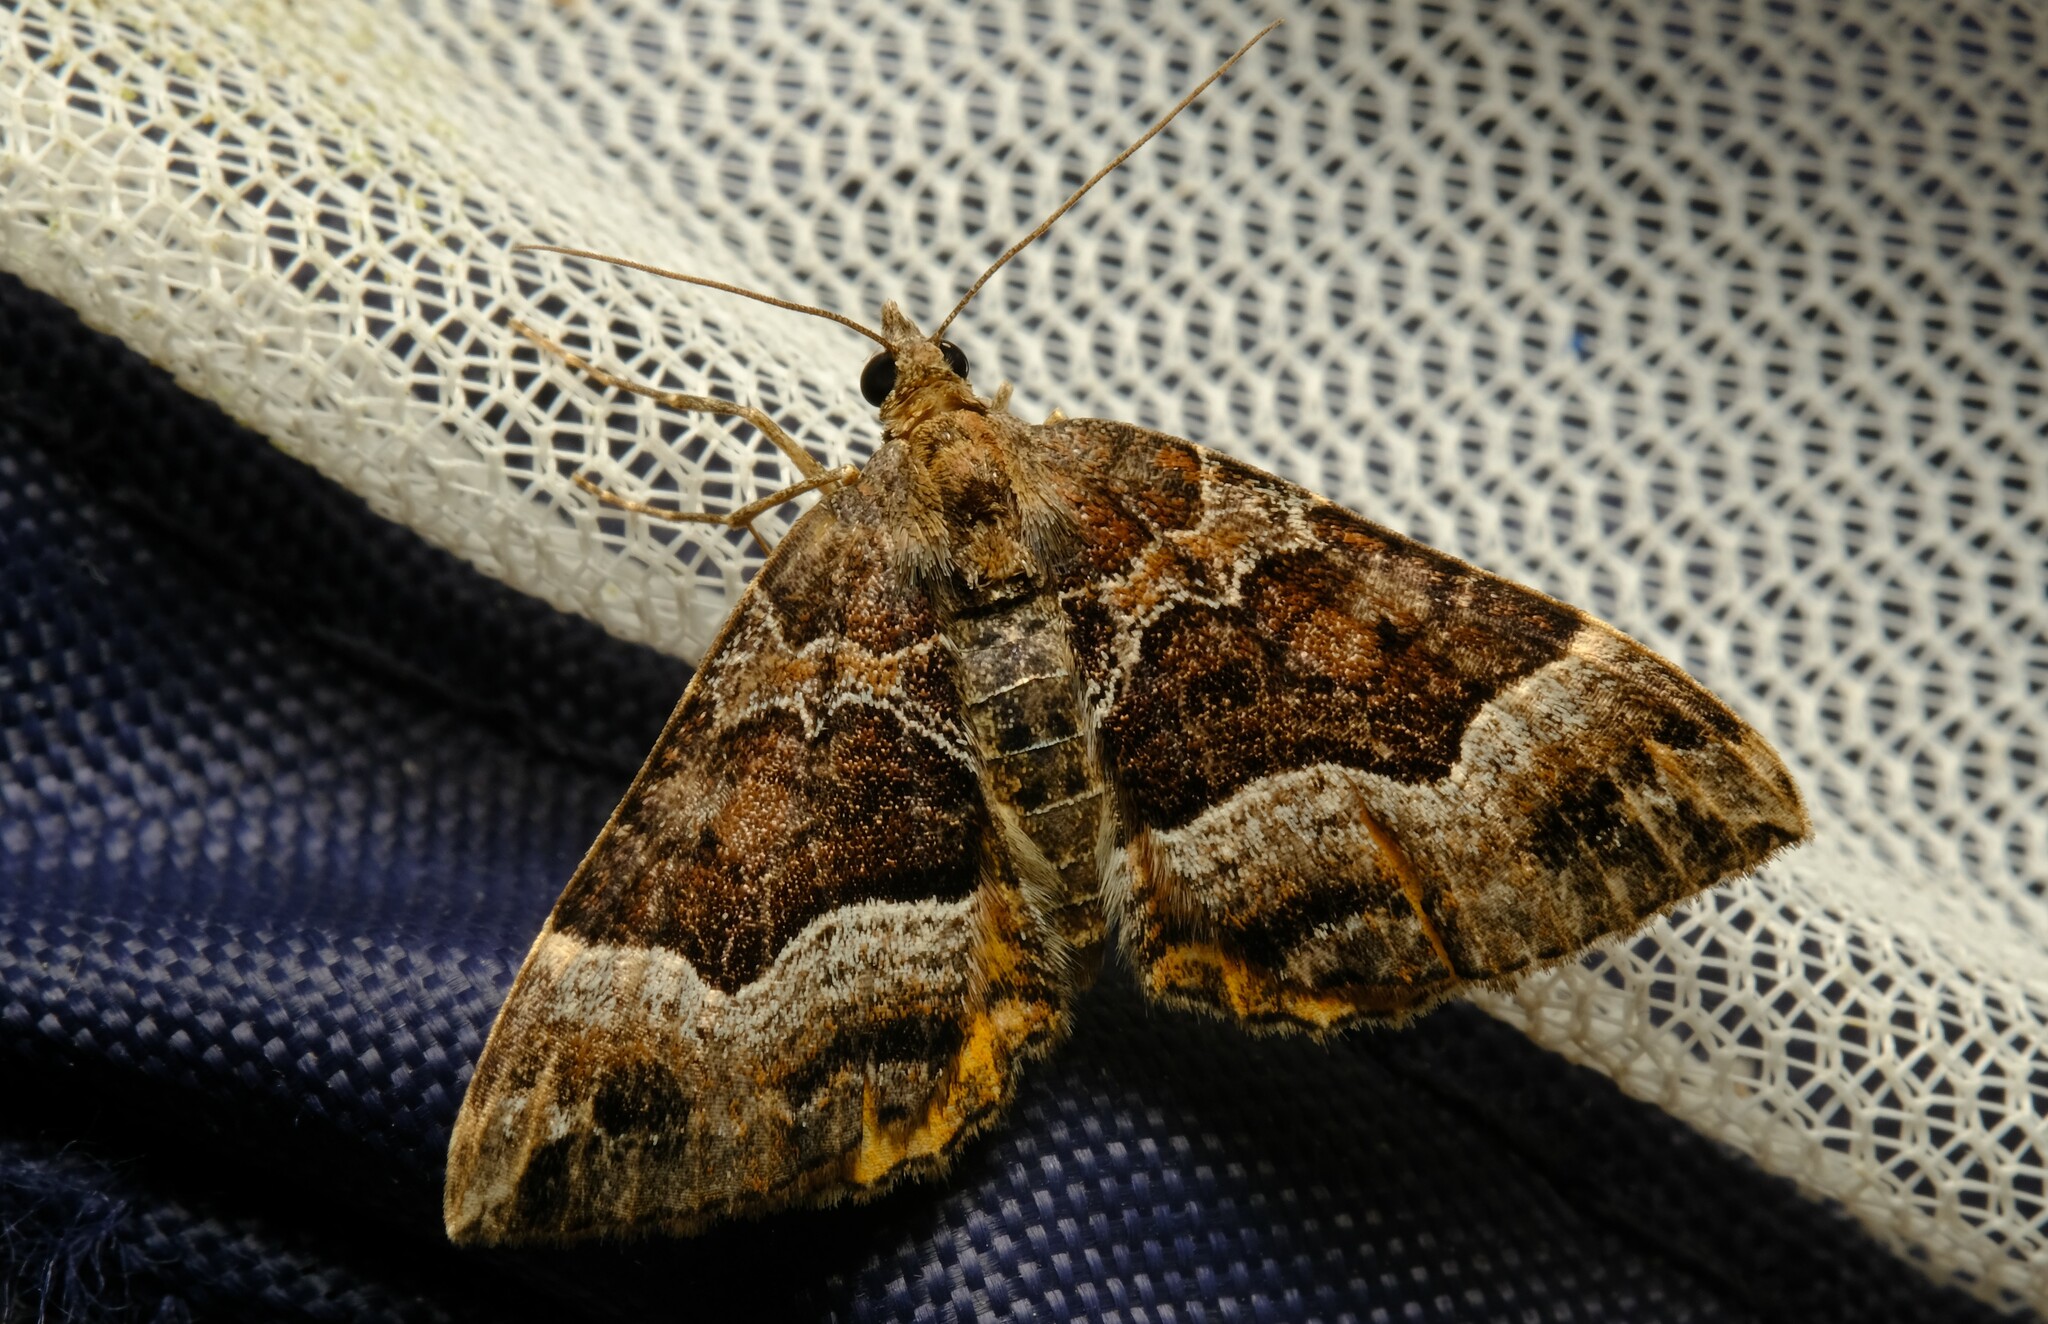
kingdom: Animalia
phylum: Arthropoda
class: Insecta
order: Lepidoptera
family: Geometridae
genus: Chrysolarentia
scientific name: Chrysolarentia lucidulata
